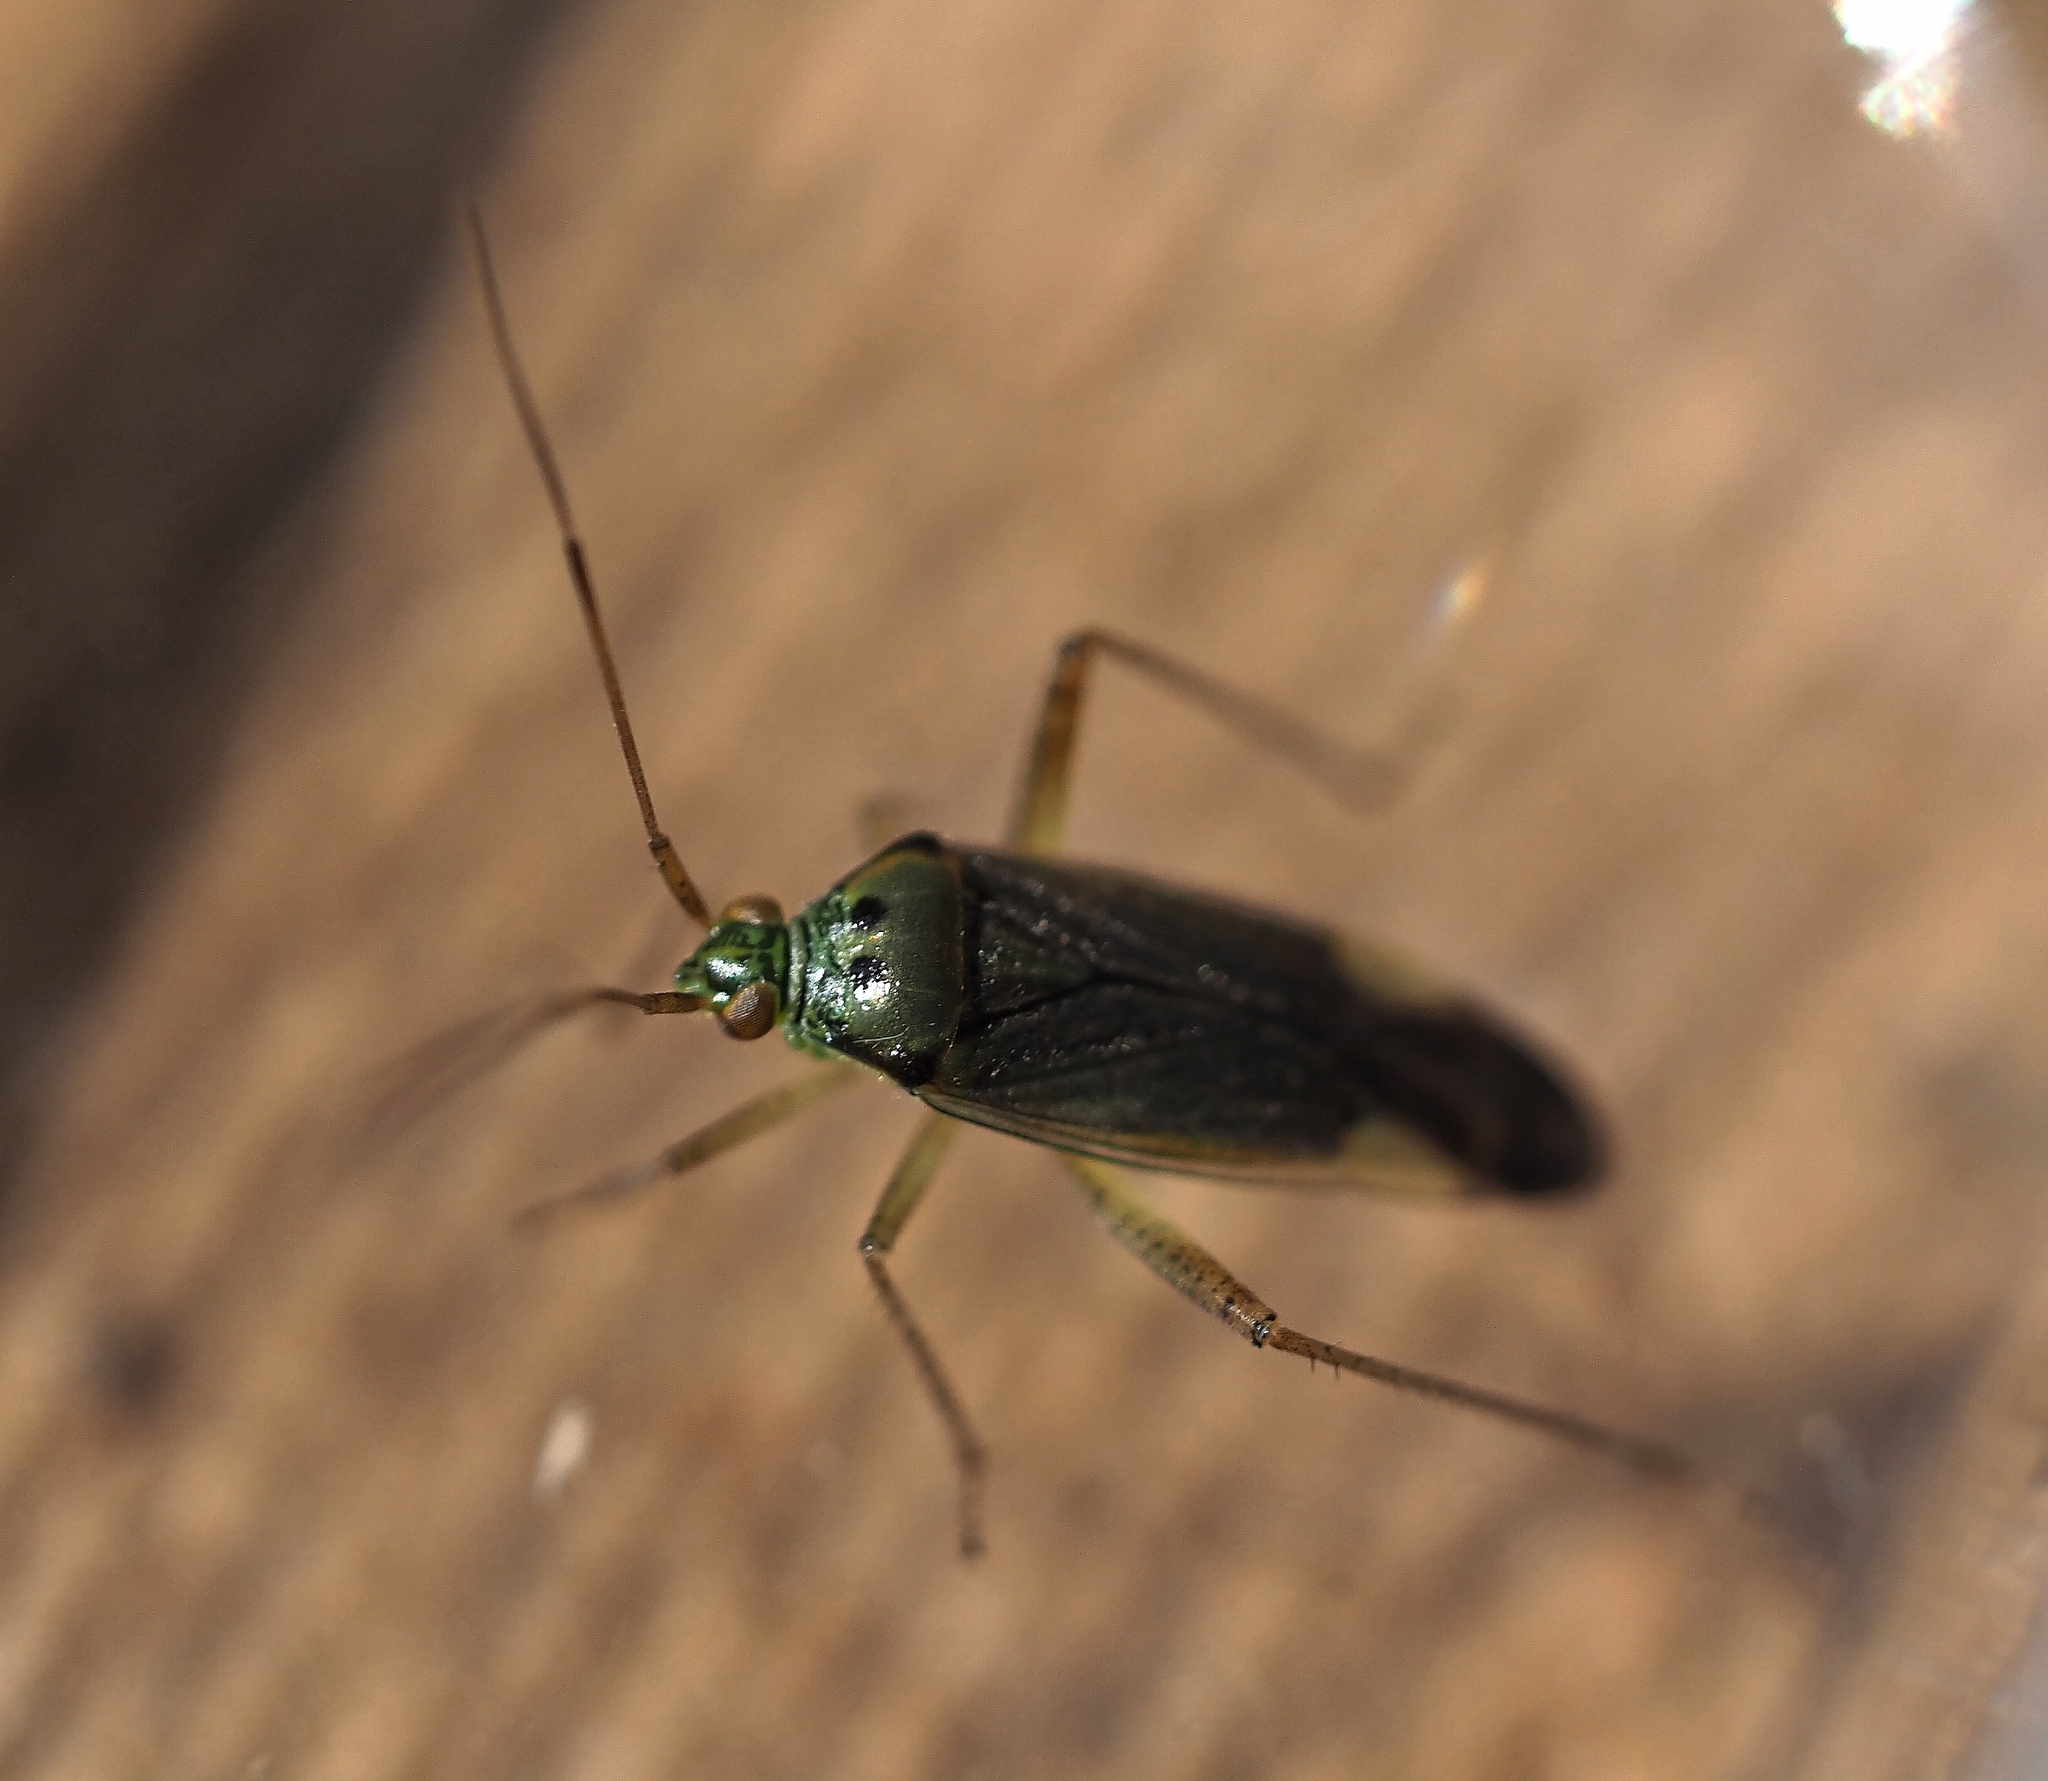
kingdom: Animalia
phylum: Arthropoda
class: Insecta
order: Hemiptera
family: Miridae
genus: Closterotomus
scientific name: Closterotomus trivialis
